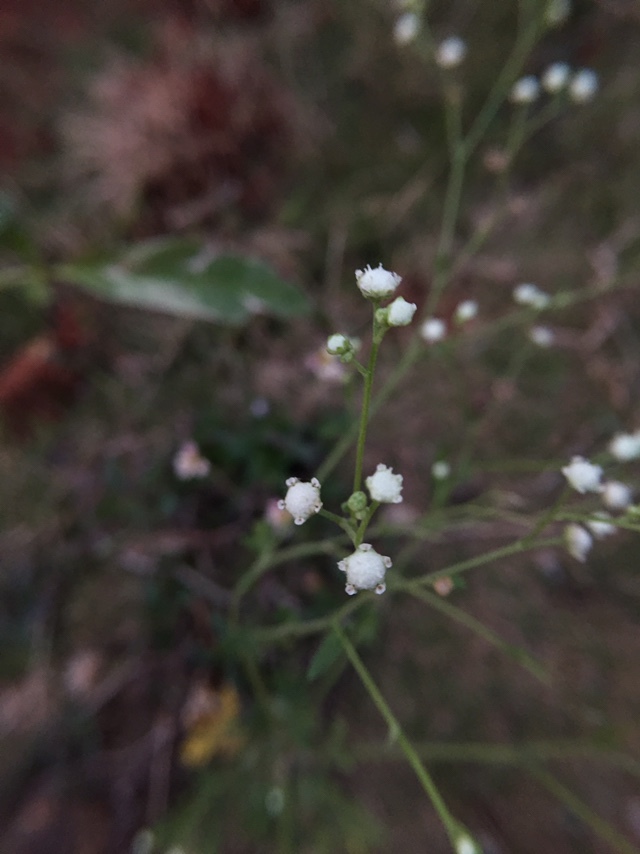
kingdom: Plantae
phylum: Tracheophyta
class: Magnoliopsida
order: Asterales
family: Asteraceae
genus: Parthenium
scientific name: Parthenium hysterophorus
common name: Santa maria feverfew
